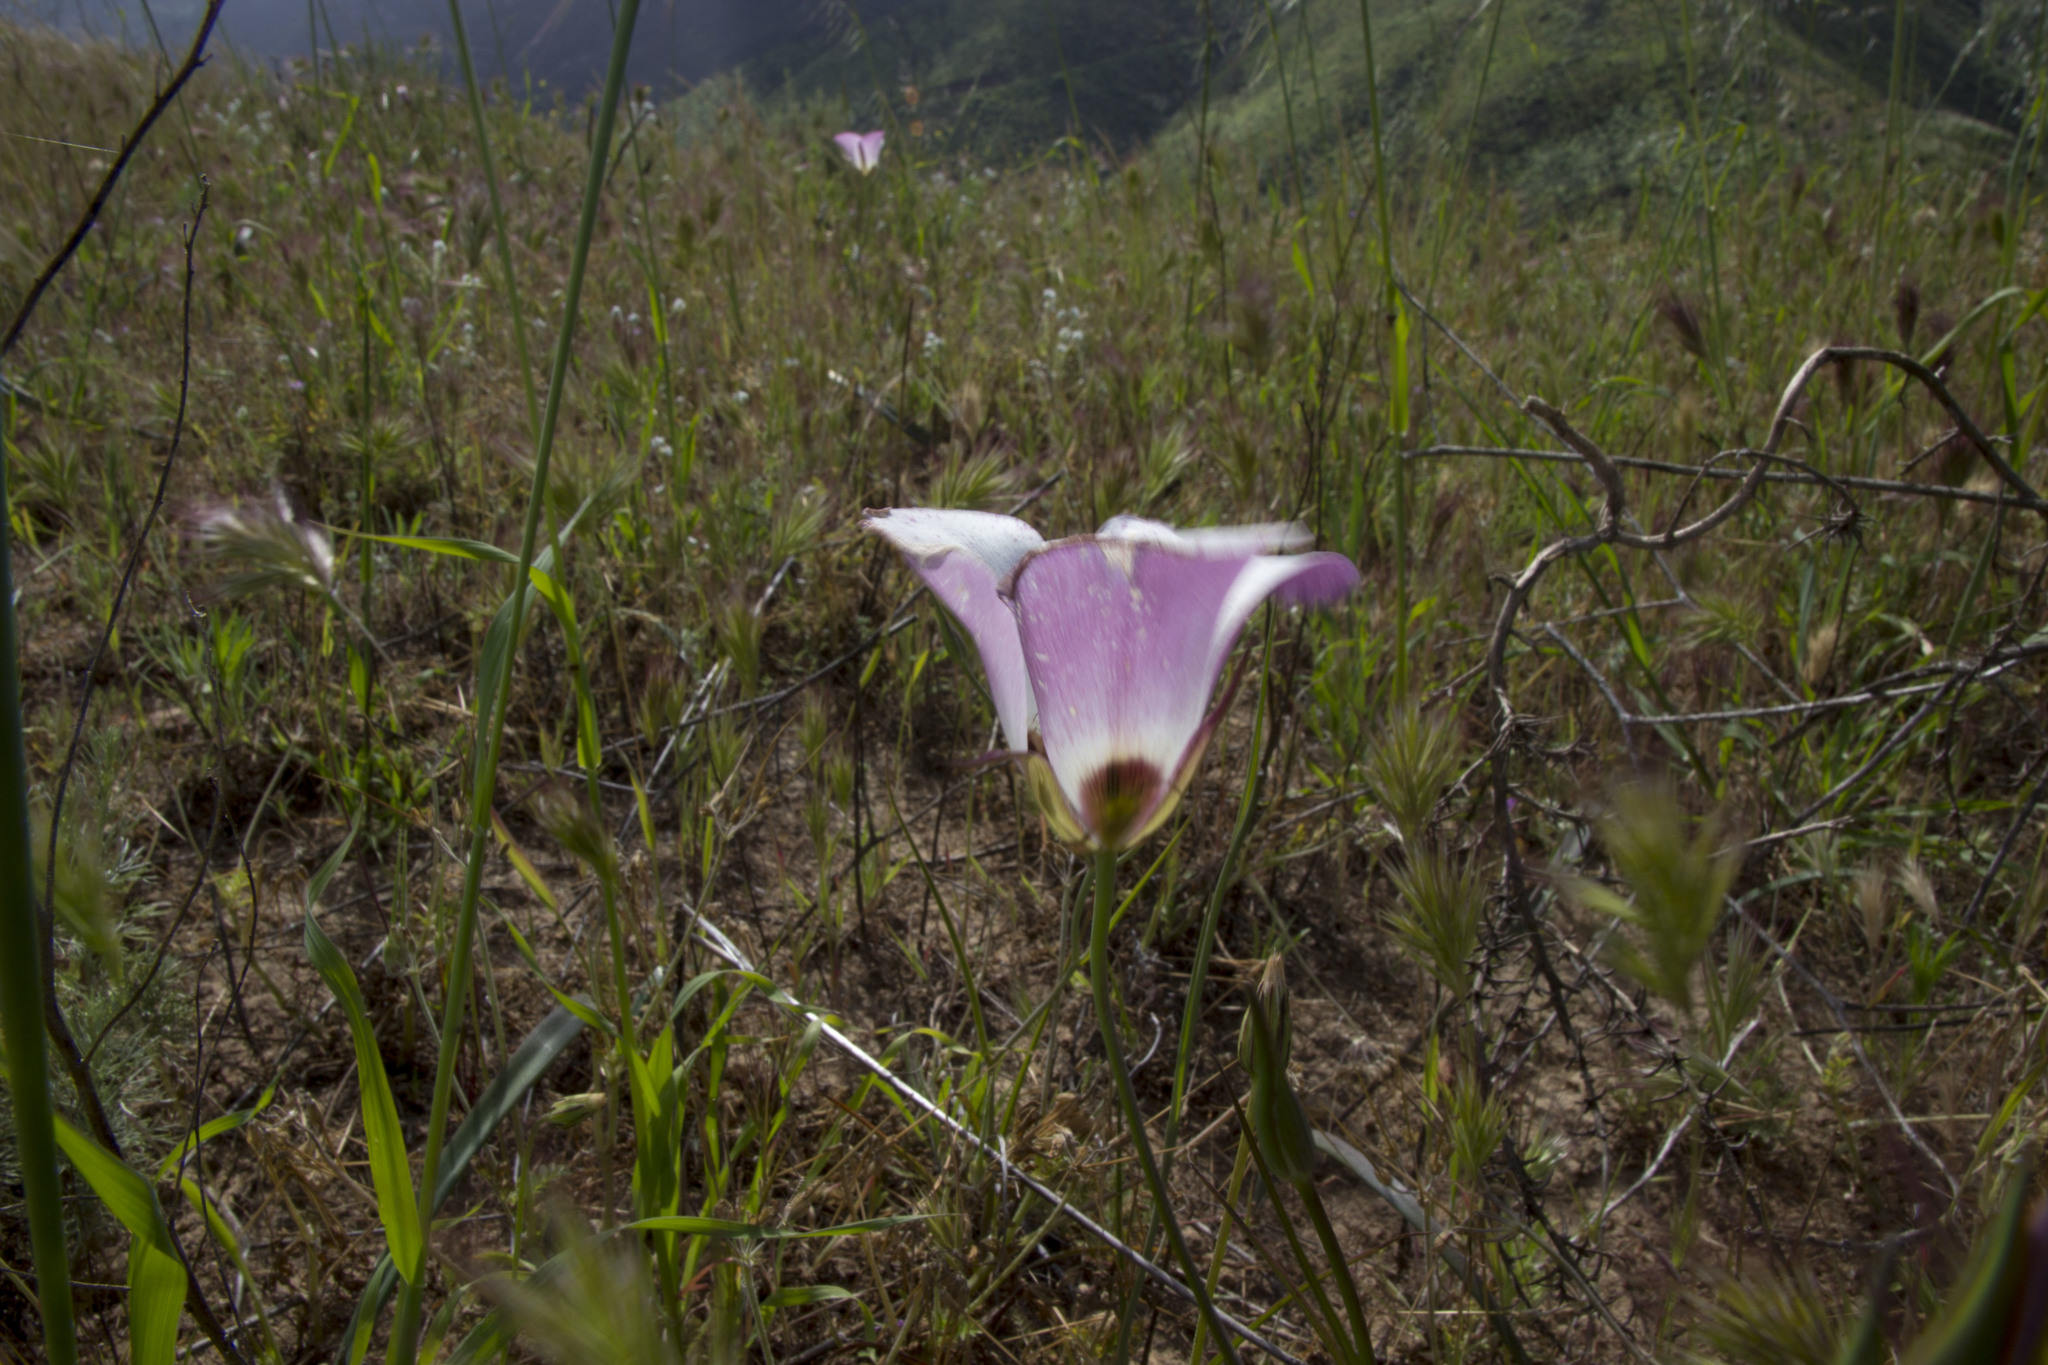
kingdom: Plantae
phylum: Tracheophyta
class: Liliopsida
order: Liliales
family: Liliaceae
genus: Calochortus
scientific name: Calochortus catalinae
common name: Catalina mariposa-lily
